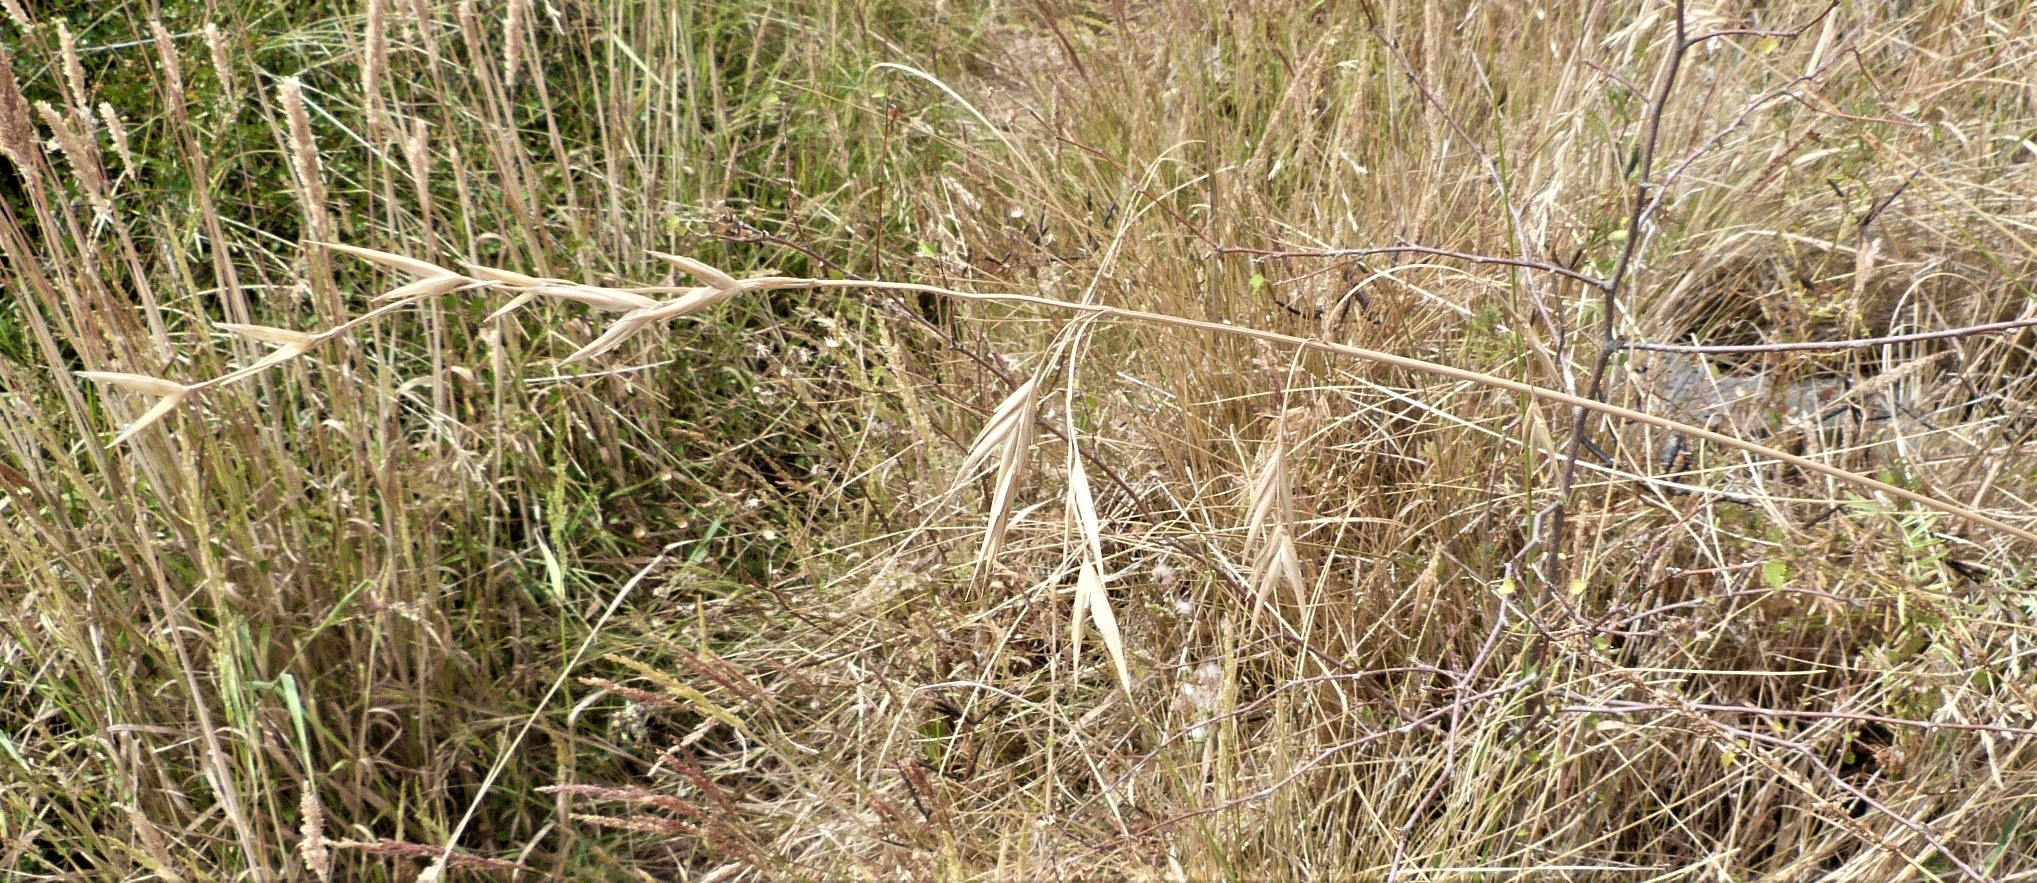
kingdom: Plantae
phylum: Tracheophyta
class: Liliopsida
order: Poales
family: Poaceae
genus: Bromus
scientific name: Bromus catharticus
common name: Rescuegrass
